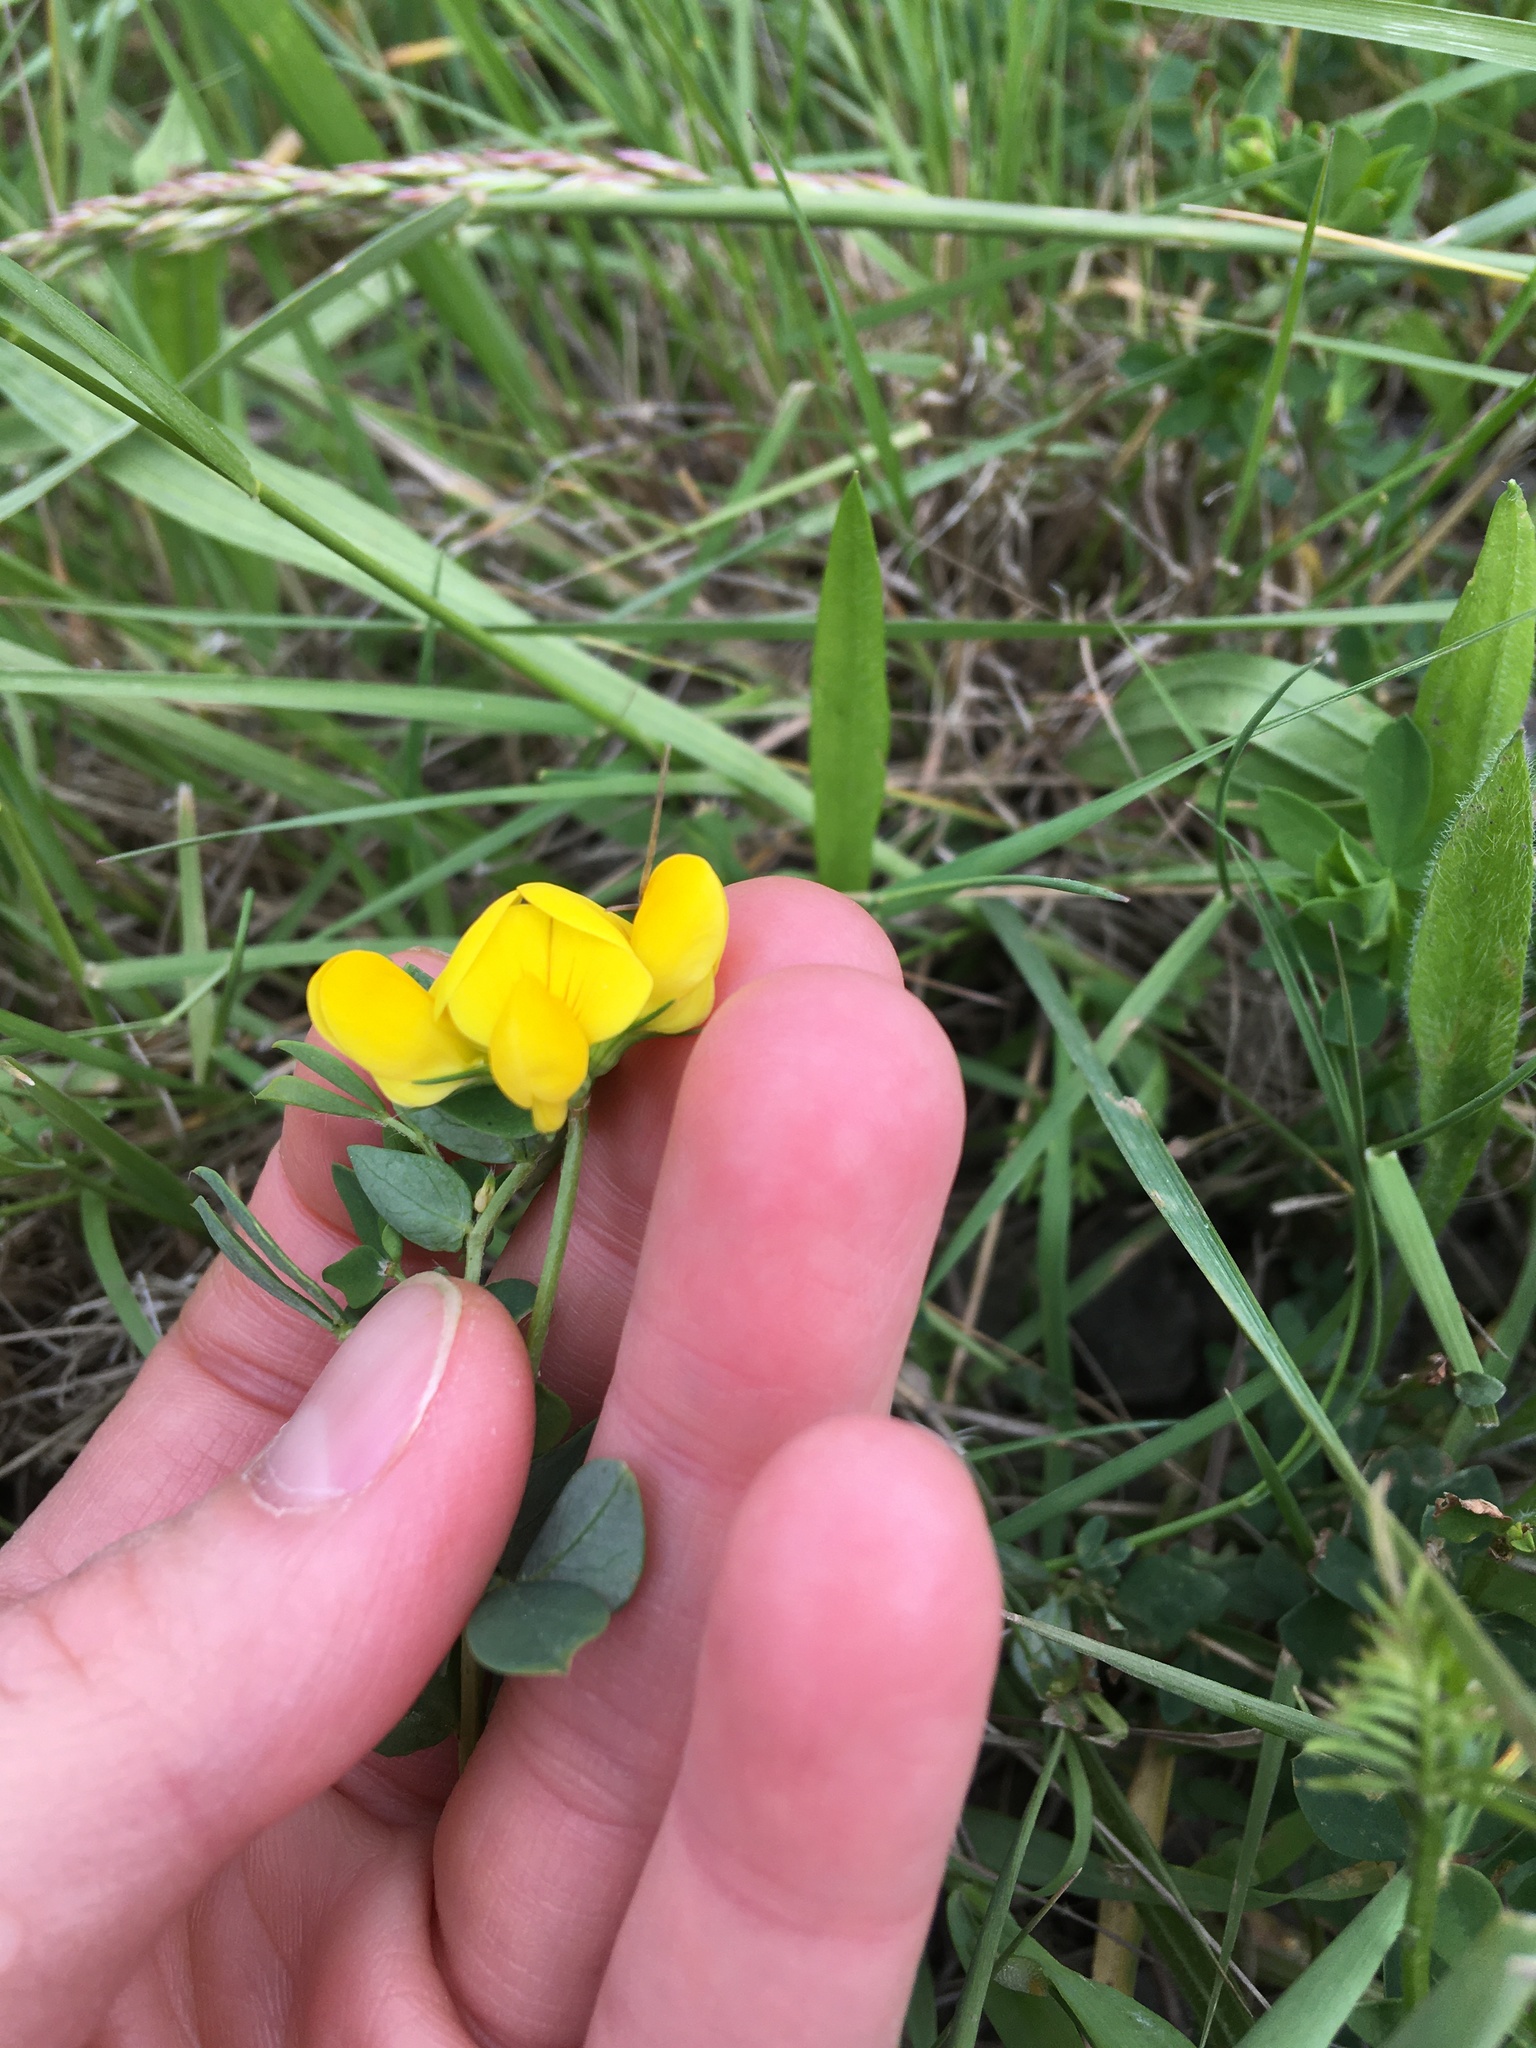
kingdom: Plantae
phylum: Tracheophyta
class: Magnoliopsida
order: Fabales
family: Fabaceae
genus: Lotus
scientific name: Lotus corniculatus
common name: Common bird's-foot-trefoil
